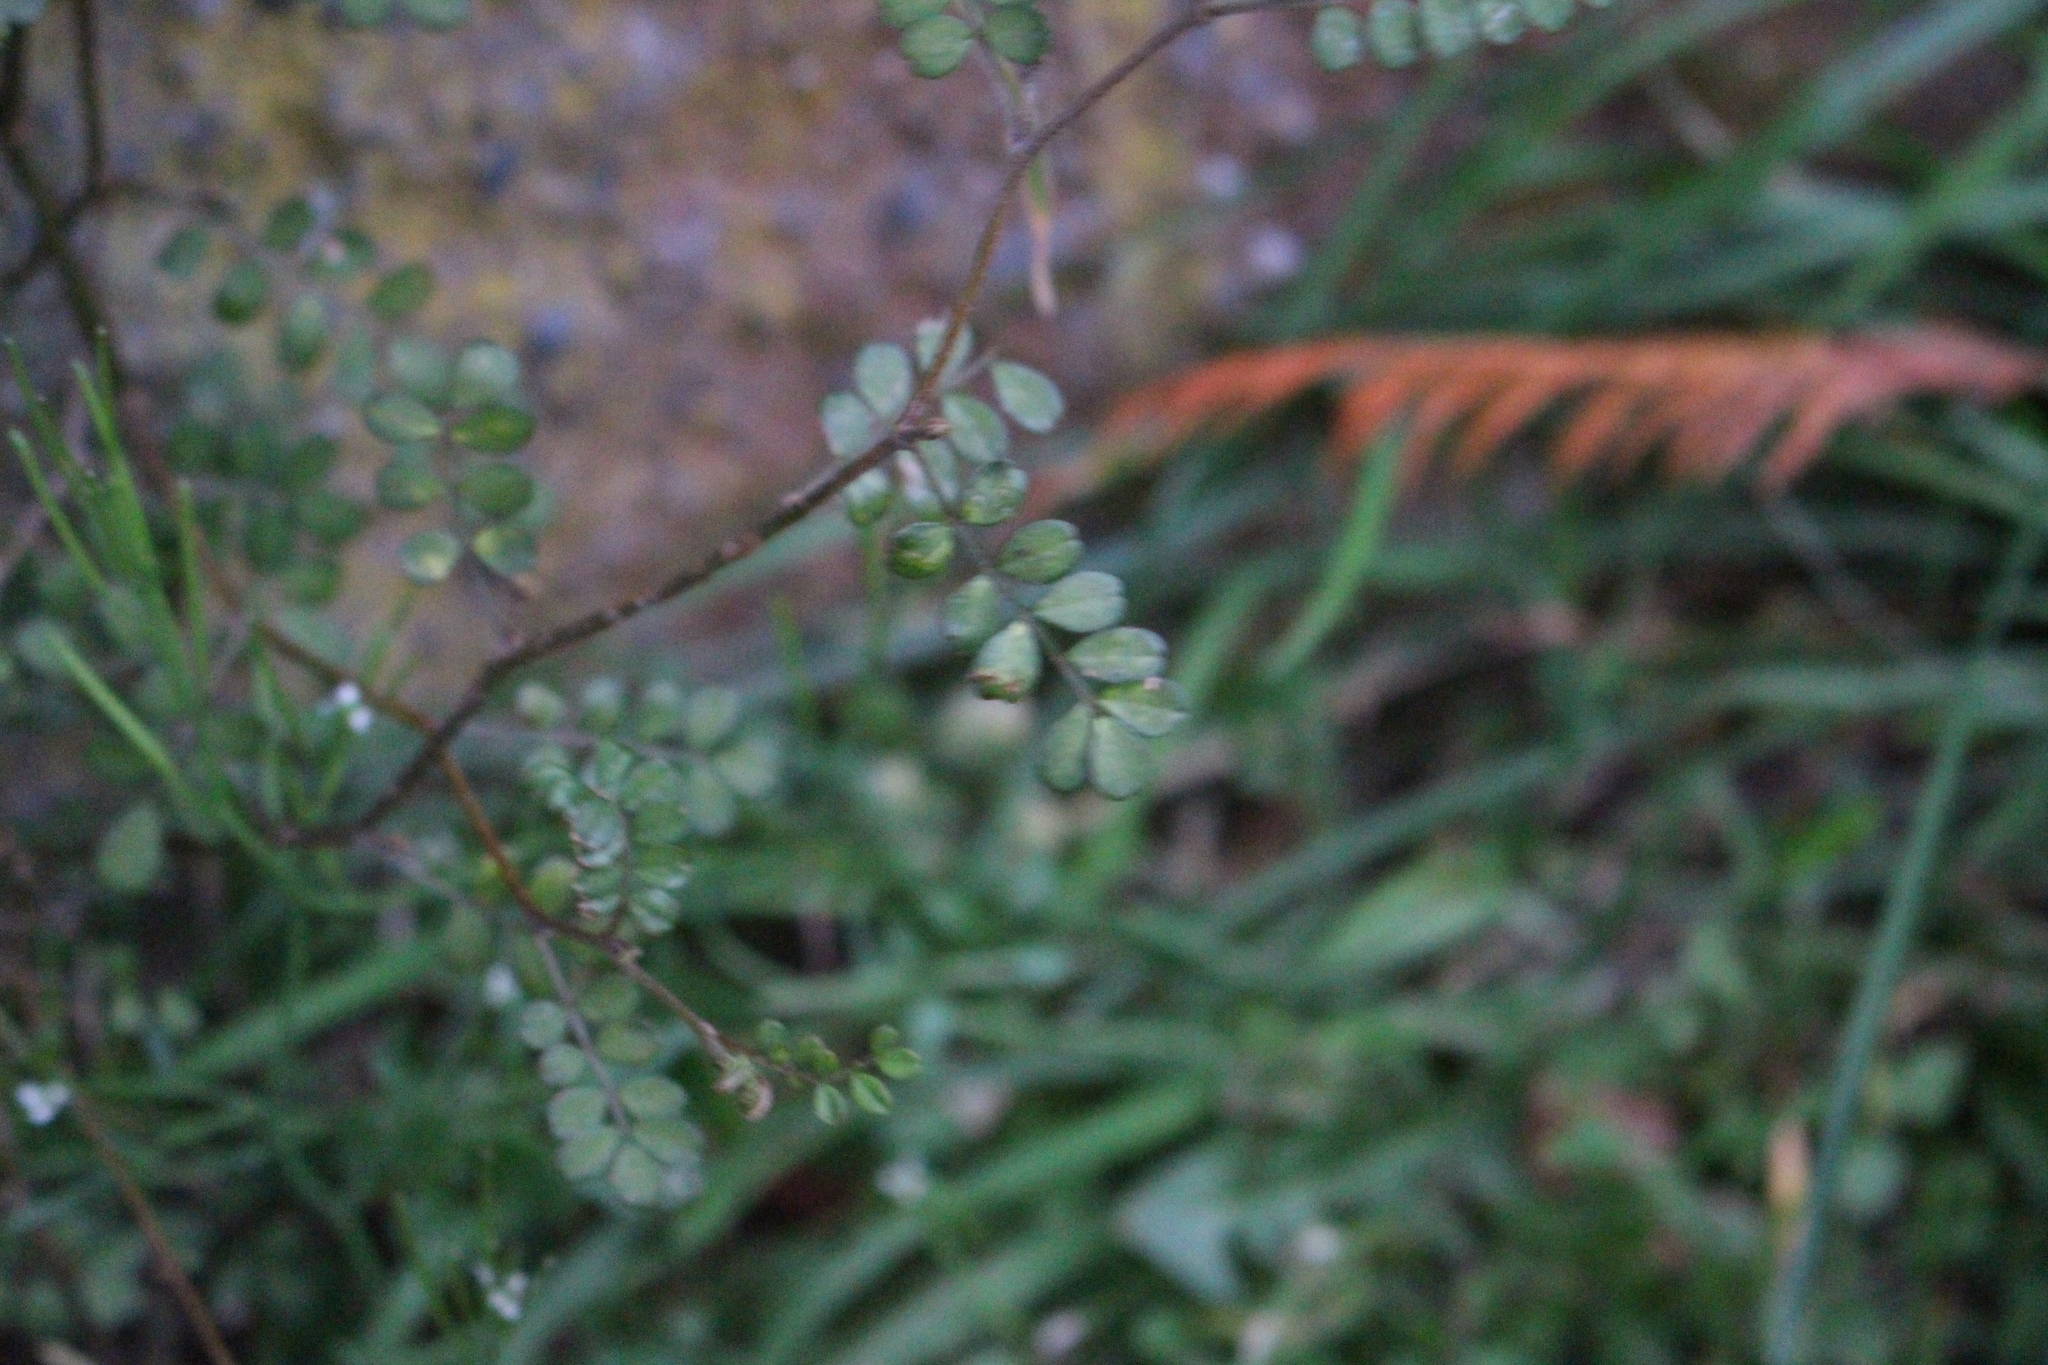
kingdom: Plantae
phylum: Tracheophyta
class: Magnoliopsida
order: Fabales
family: Fabaceae
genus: Sophora
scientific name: Sophora microphylla
